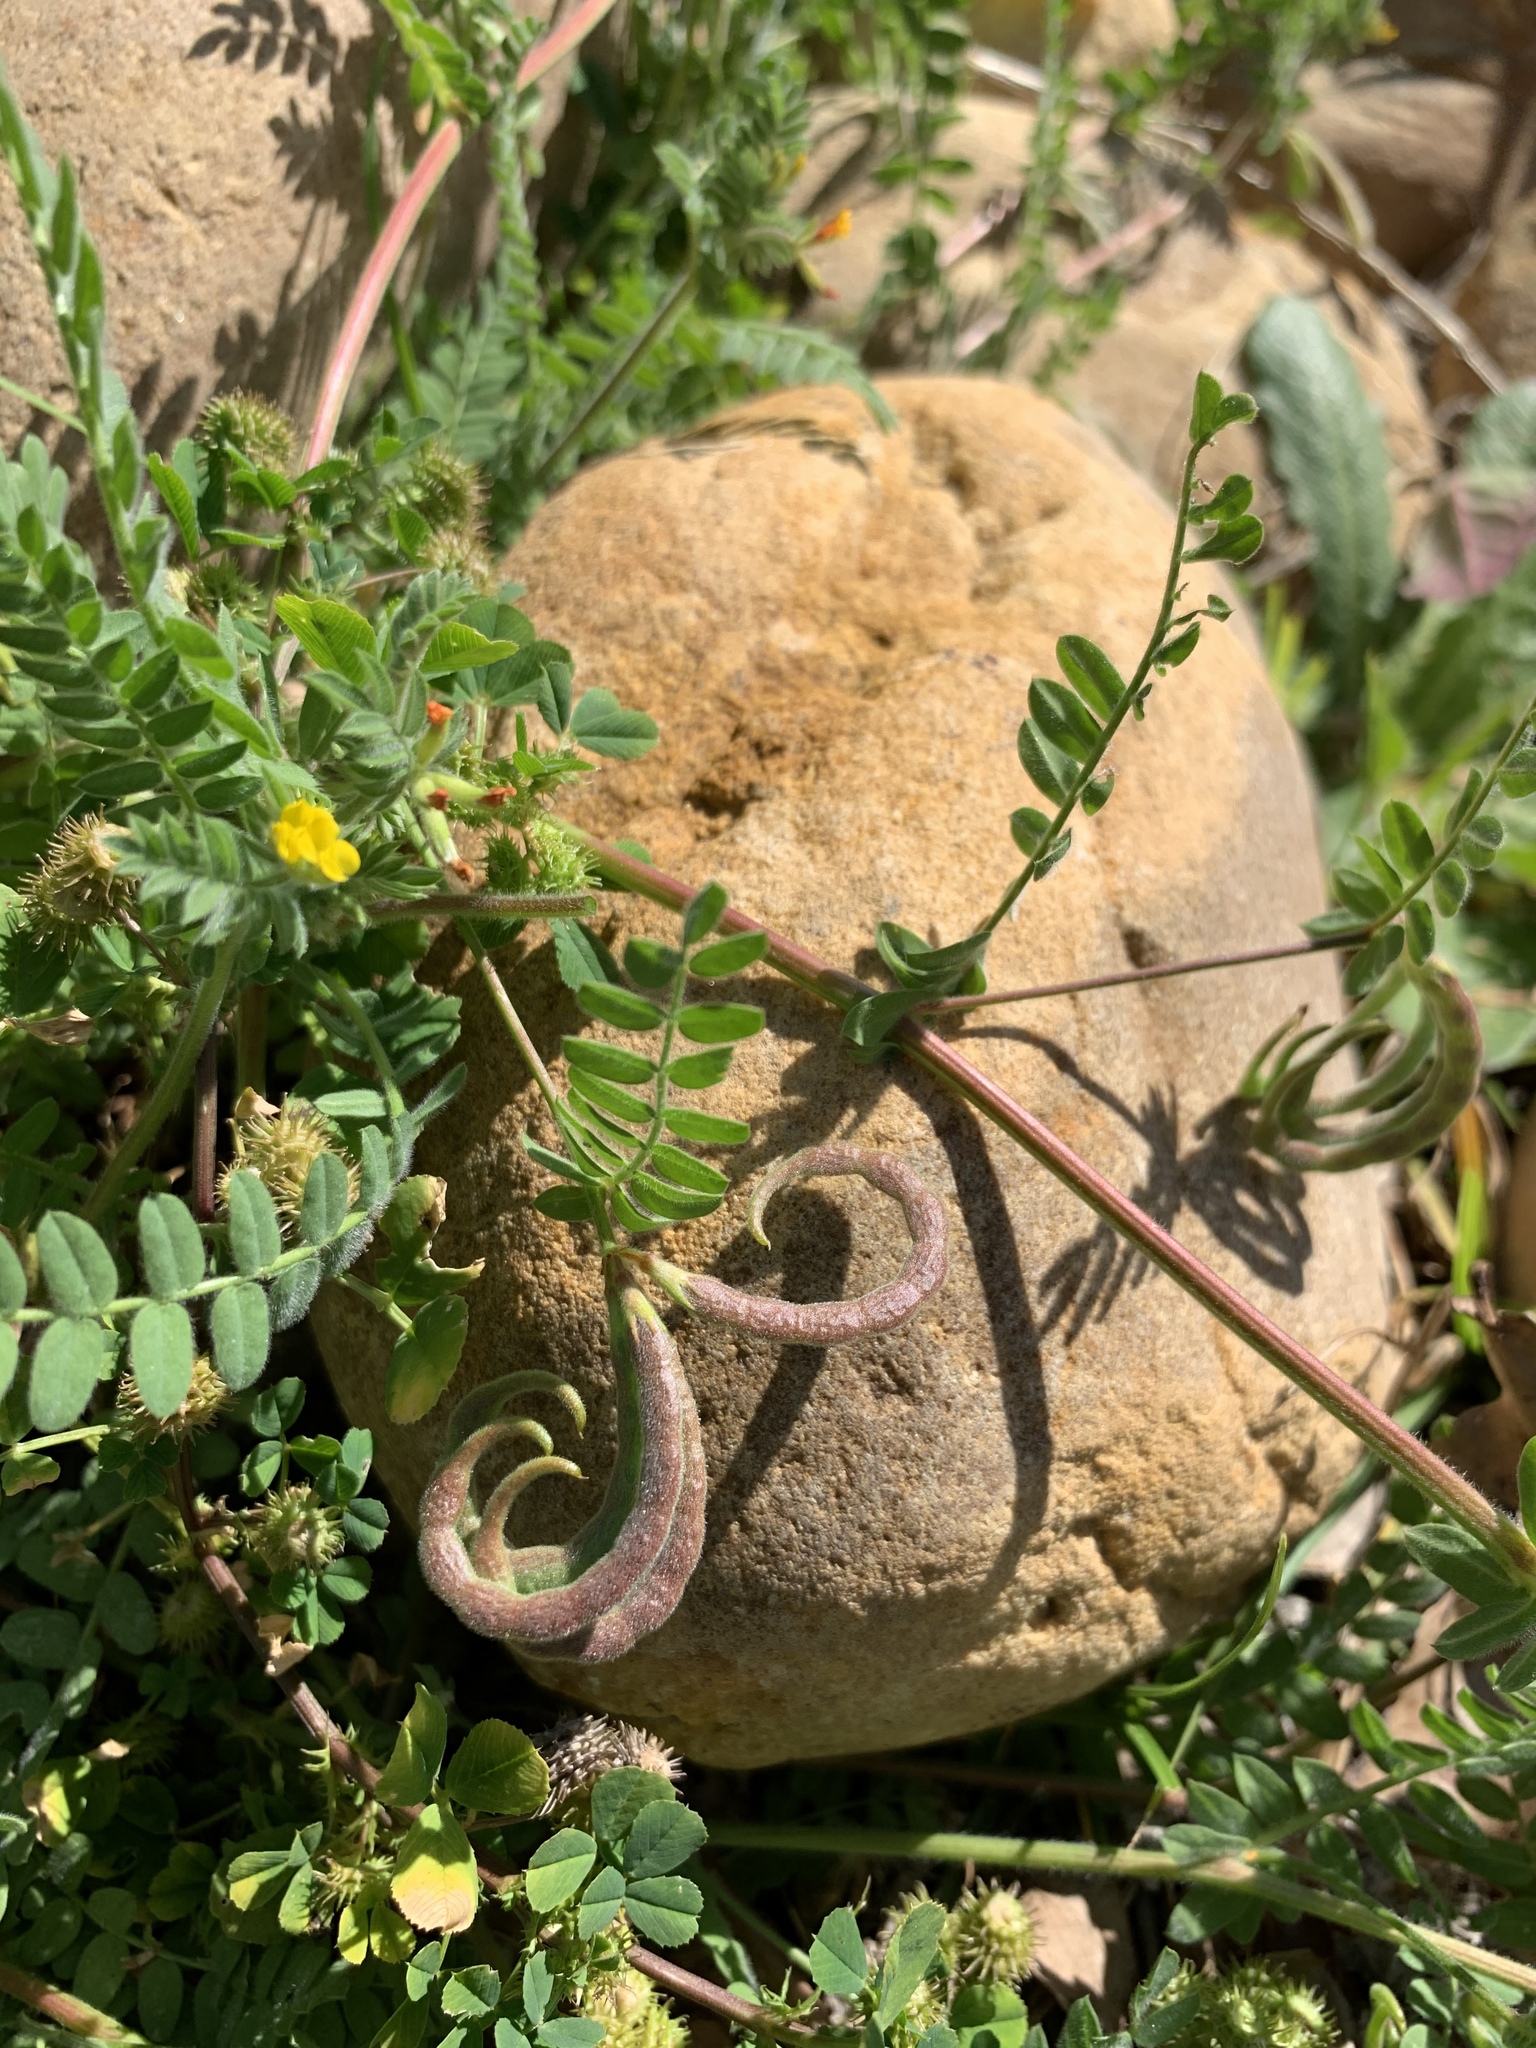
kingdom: Plantae
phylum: Tracheophyta
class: Magnoliopsida
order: Fabales
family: Fabaceae
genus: Ornithopus
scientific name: Ornithopus compressus
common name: Yellow serradella
